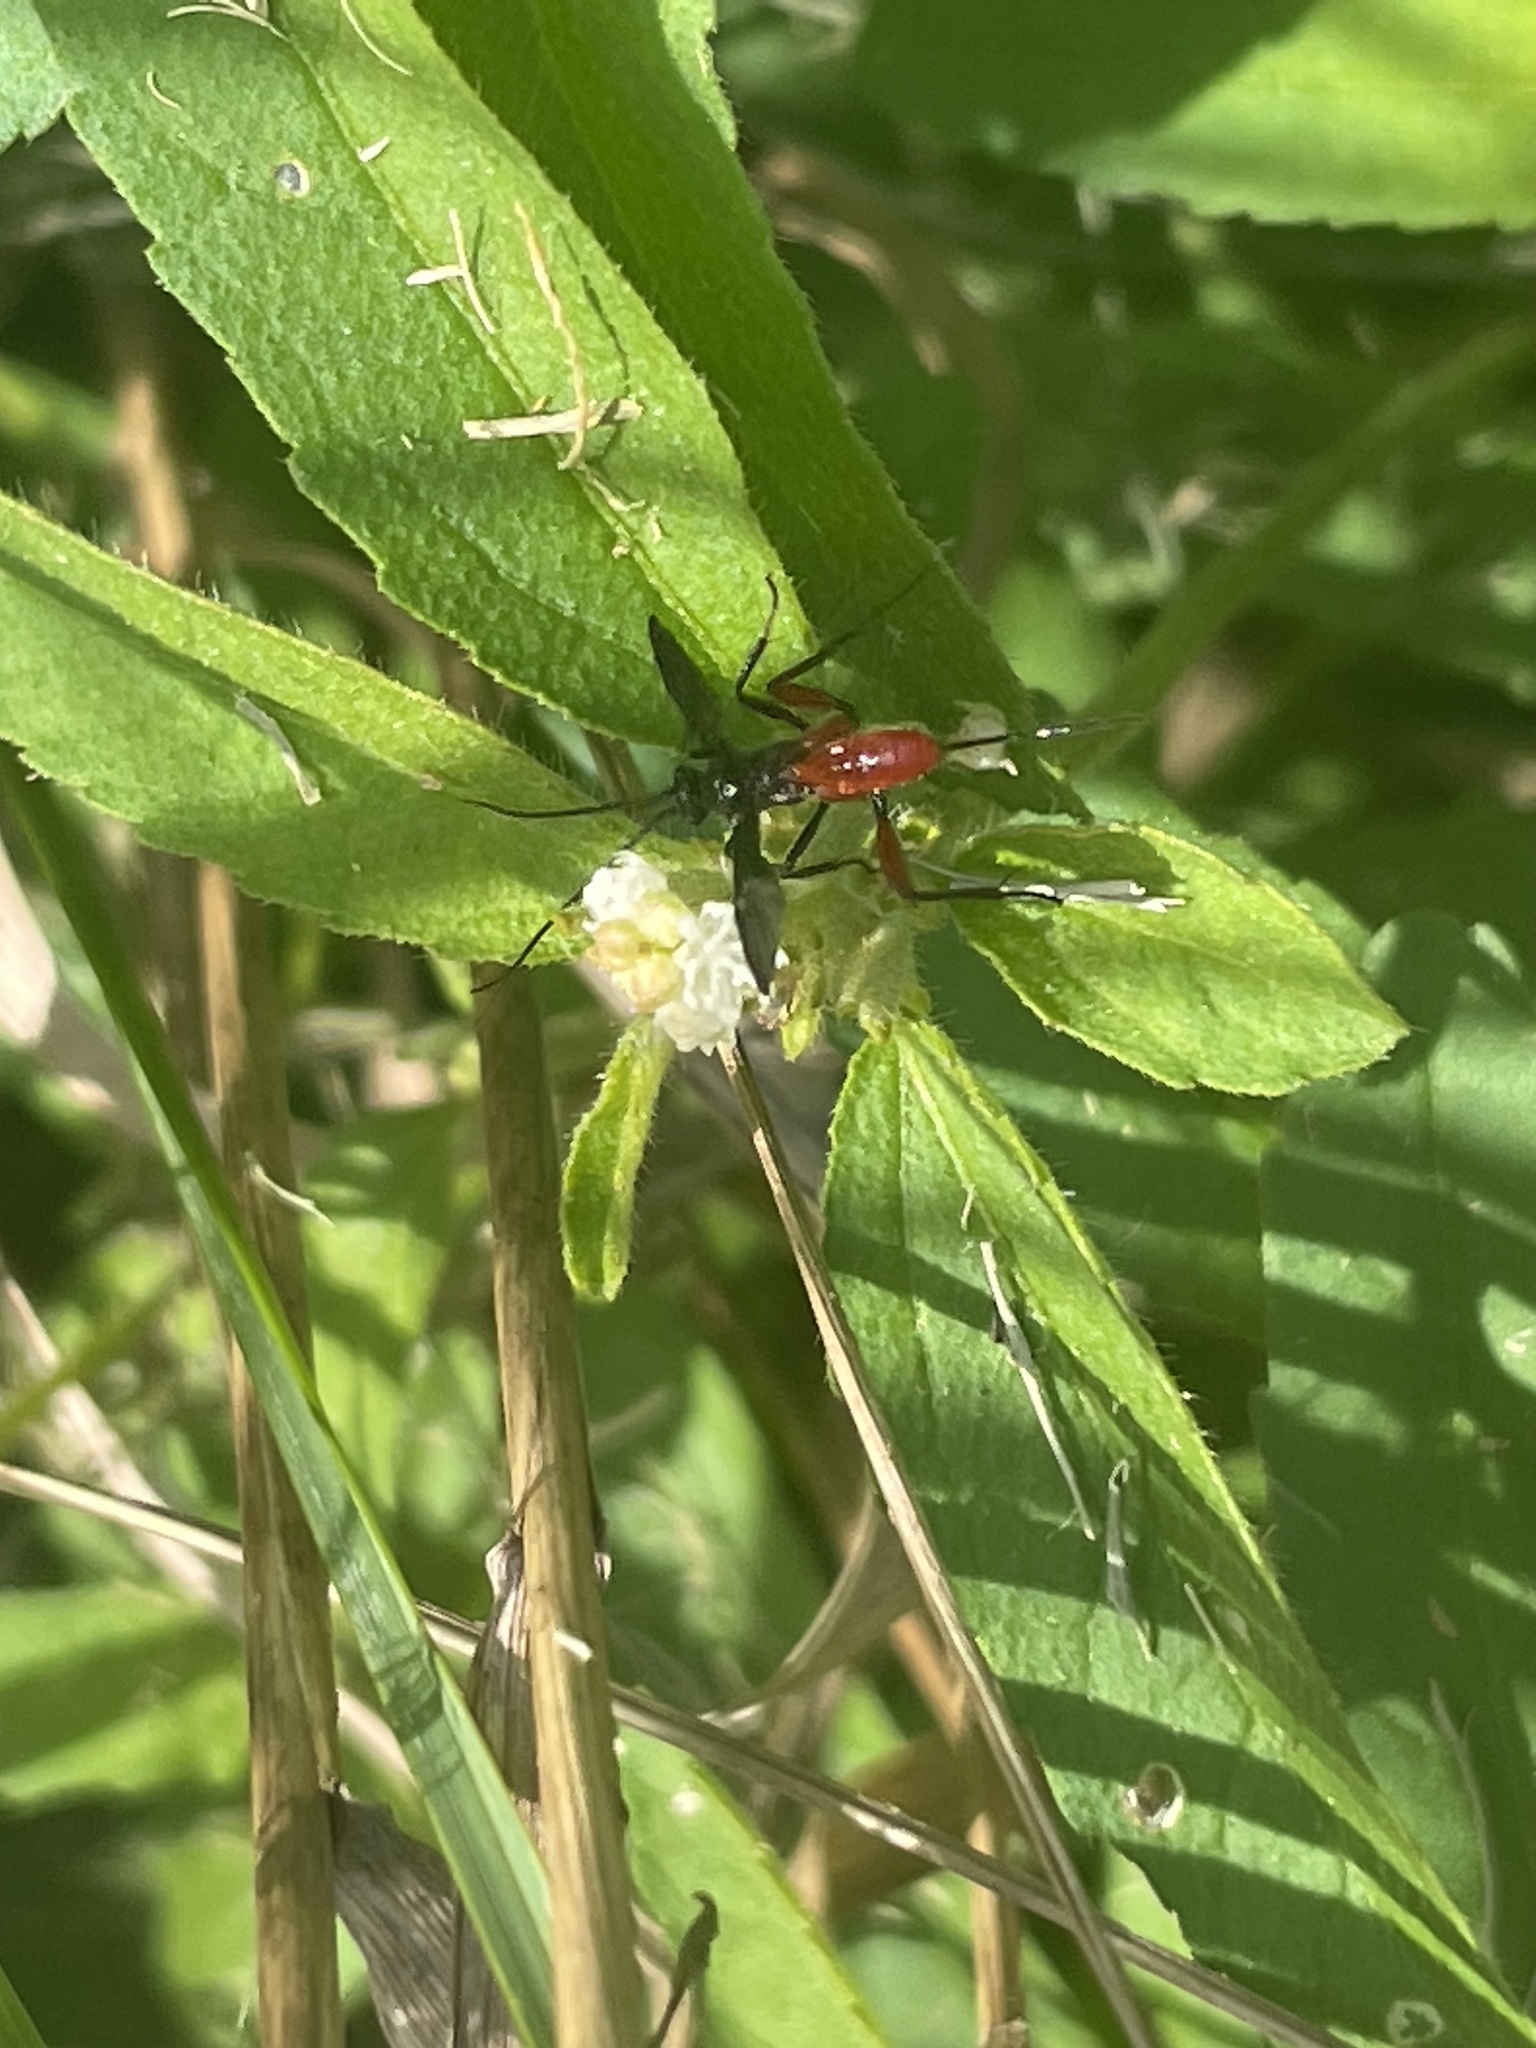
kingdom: Animalia
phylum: Arthropoda
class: Insecta
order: Hymenoptera
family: Ichneumonidae
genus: Limonethe
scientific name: Limonethe maurator
